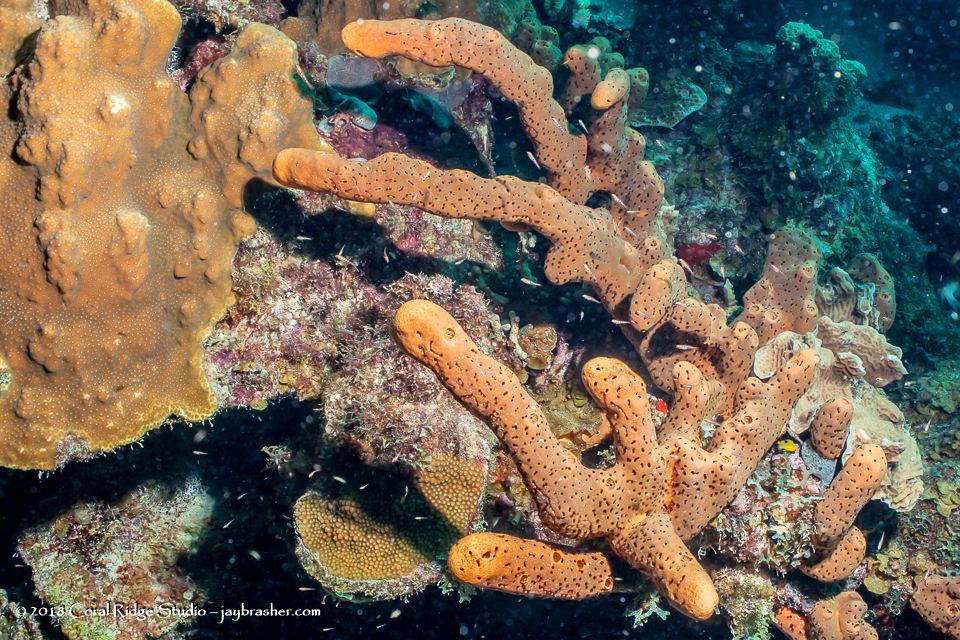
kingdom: Animalia
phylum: Porifera
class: Demospongiae
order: Agelasida
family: Agelasidae
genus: Agelas
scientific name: Agelas conifera
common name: Brown tube sponge
